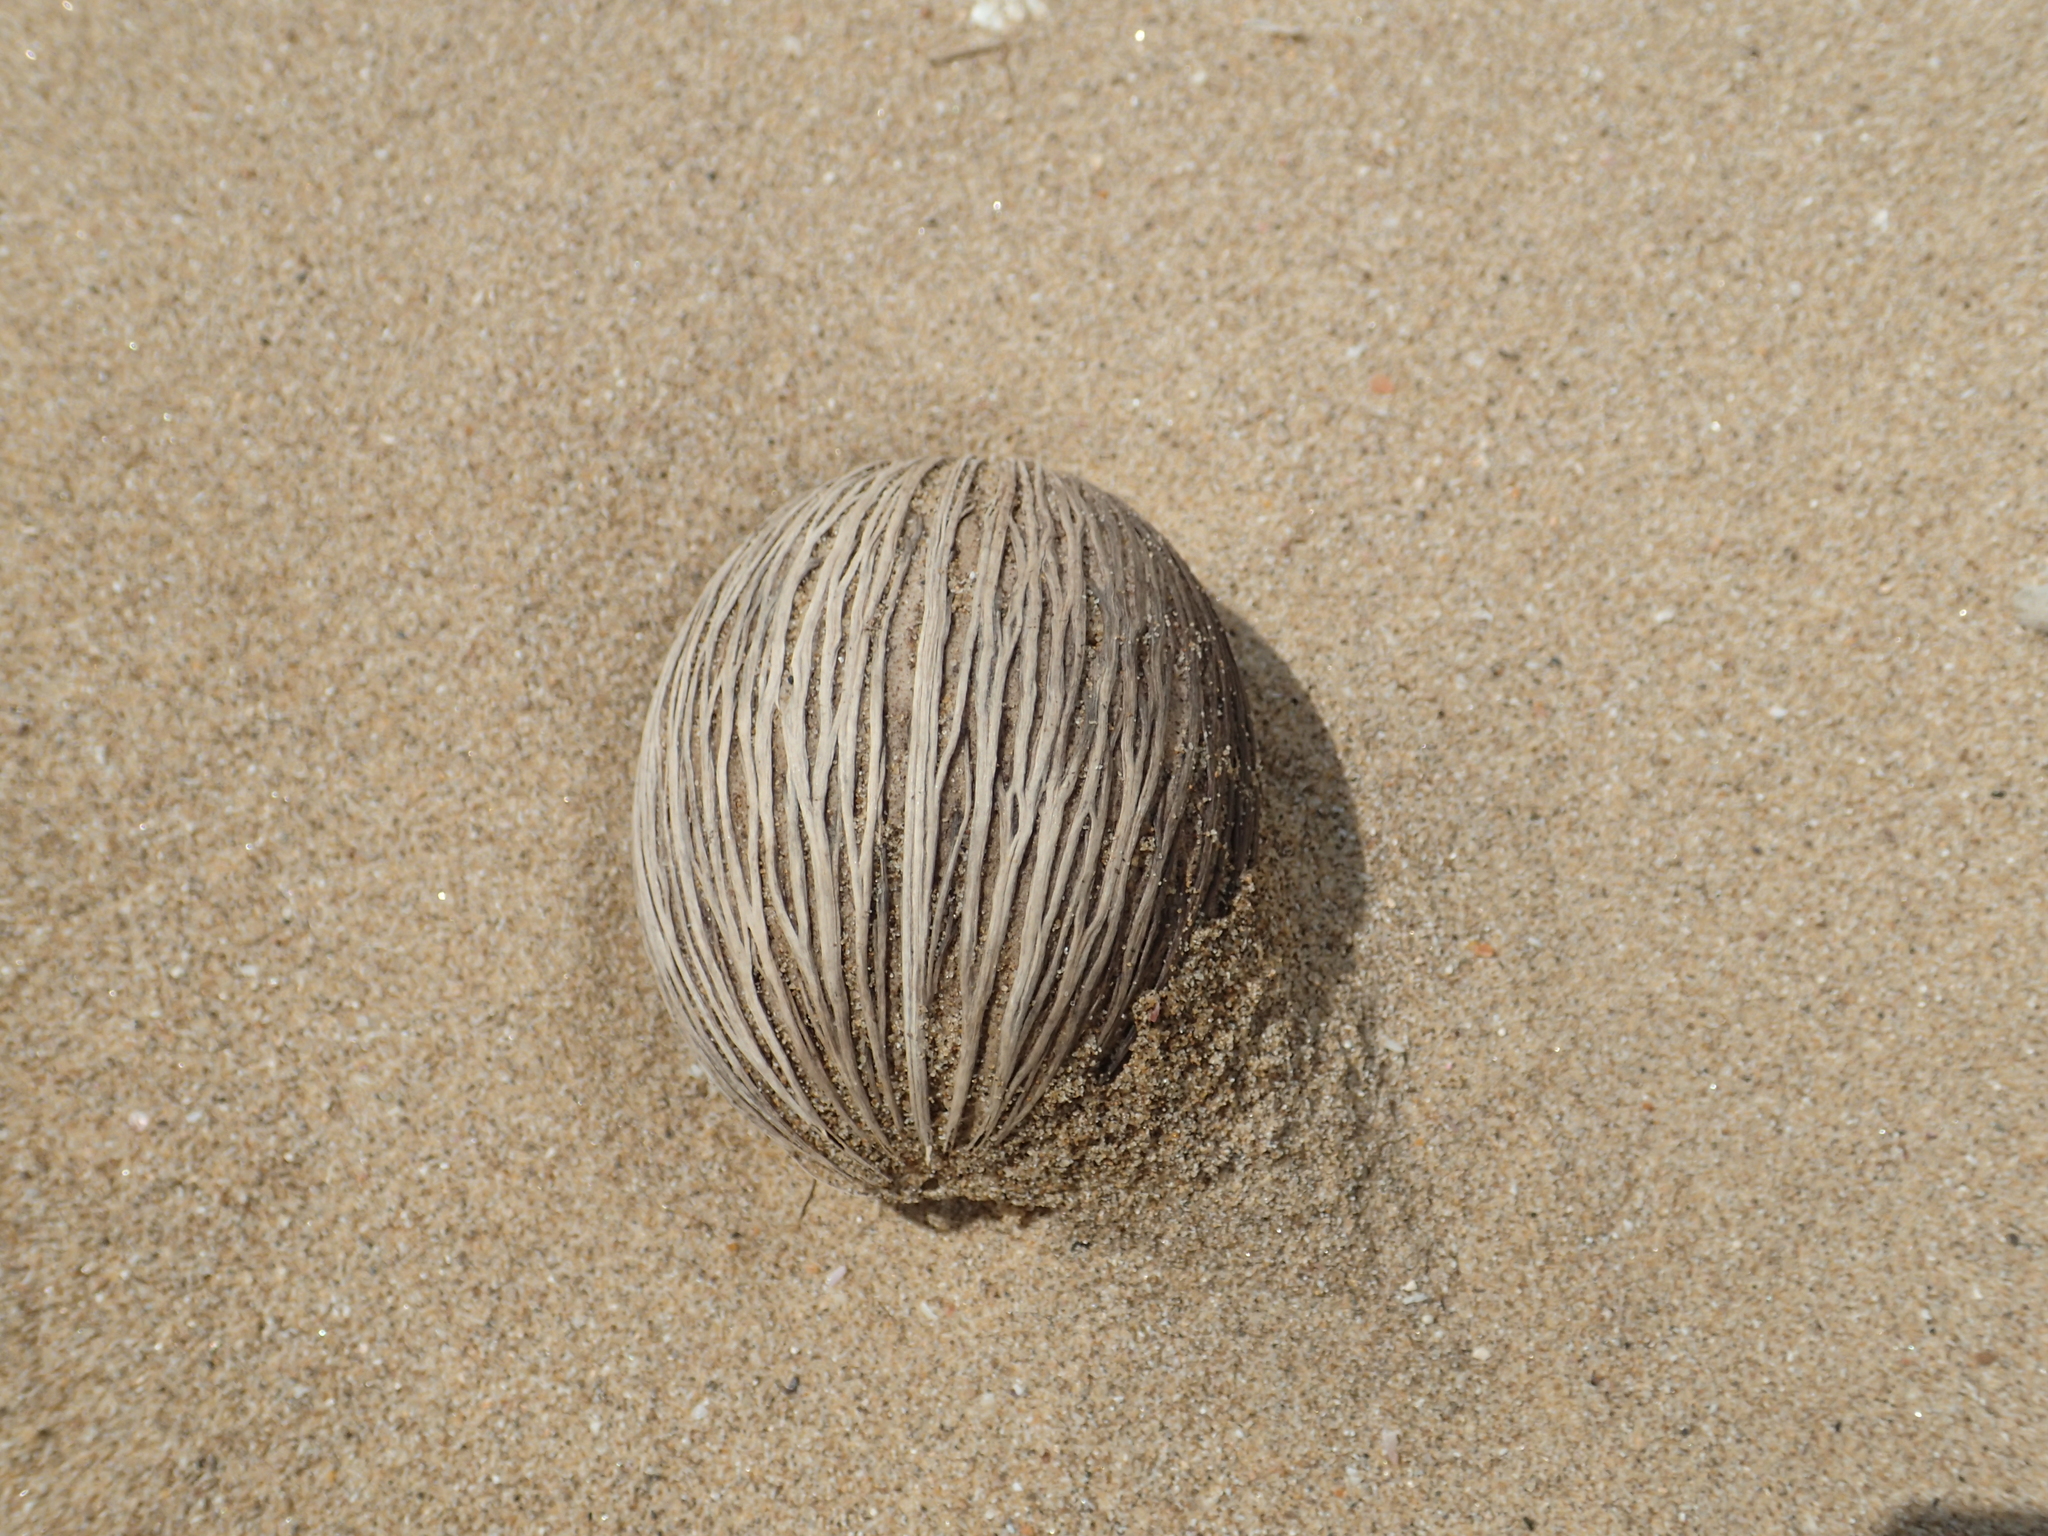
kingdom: Plantae
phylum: Tracheophyta
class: Magnoliopsida
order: Gentianales
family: Apocynaceae
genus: Cerbera
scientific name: Cerbera manghas
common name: Reva
